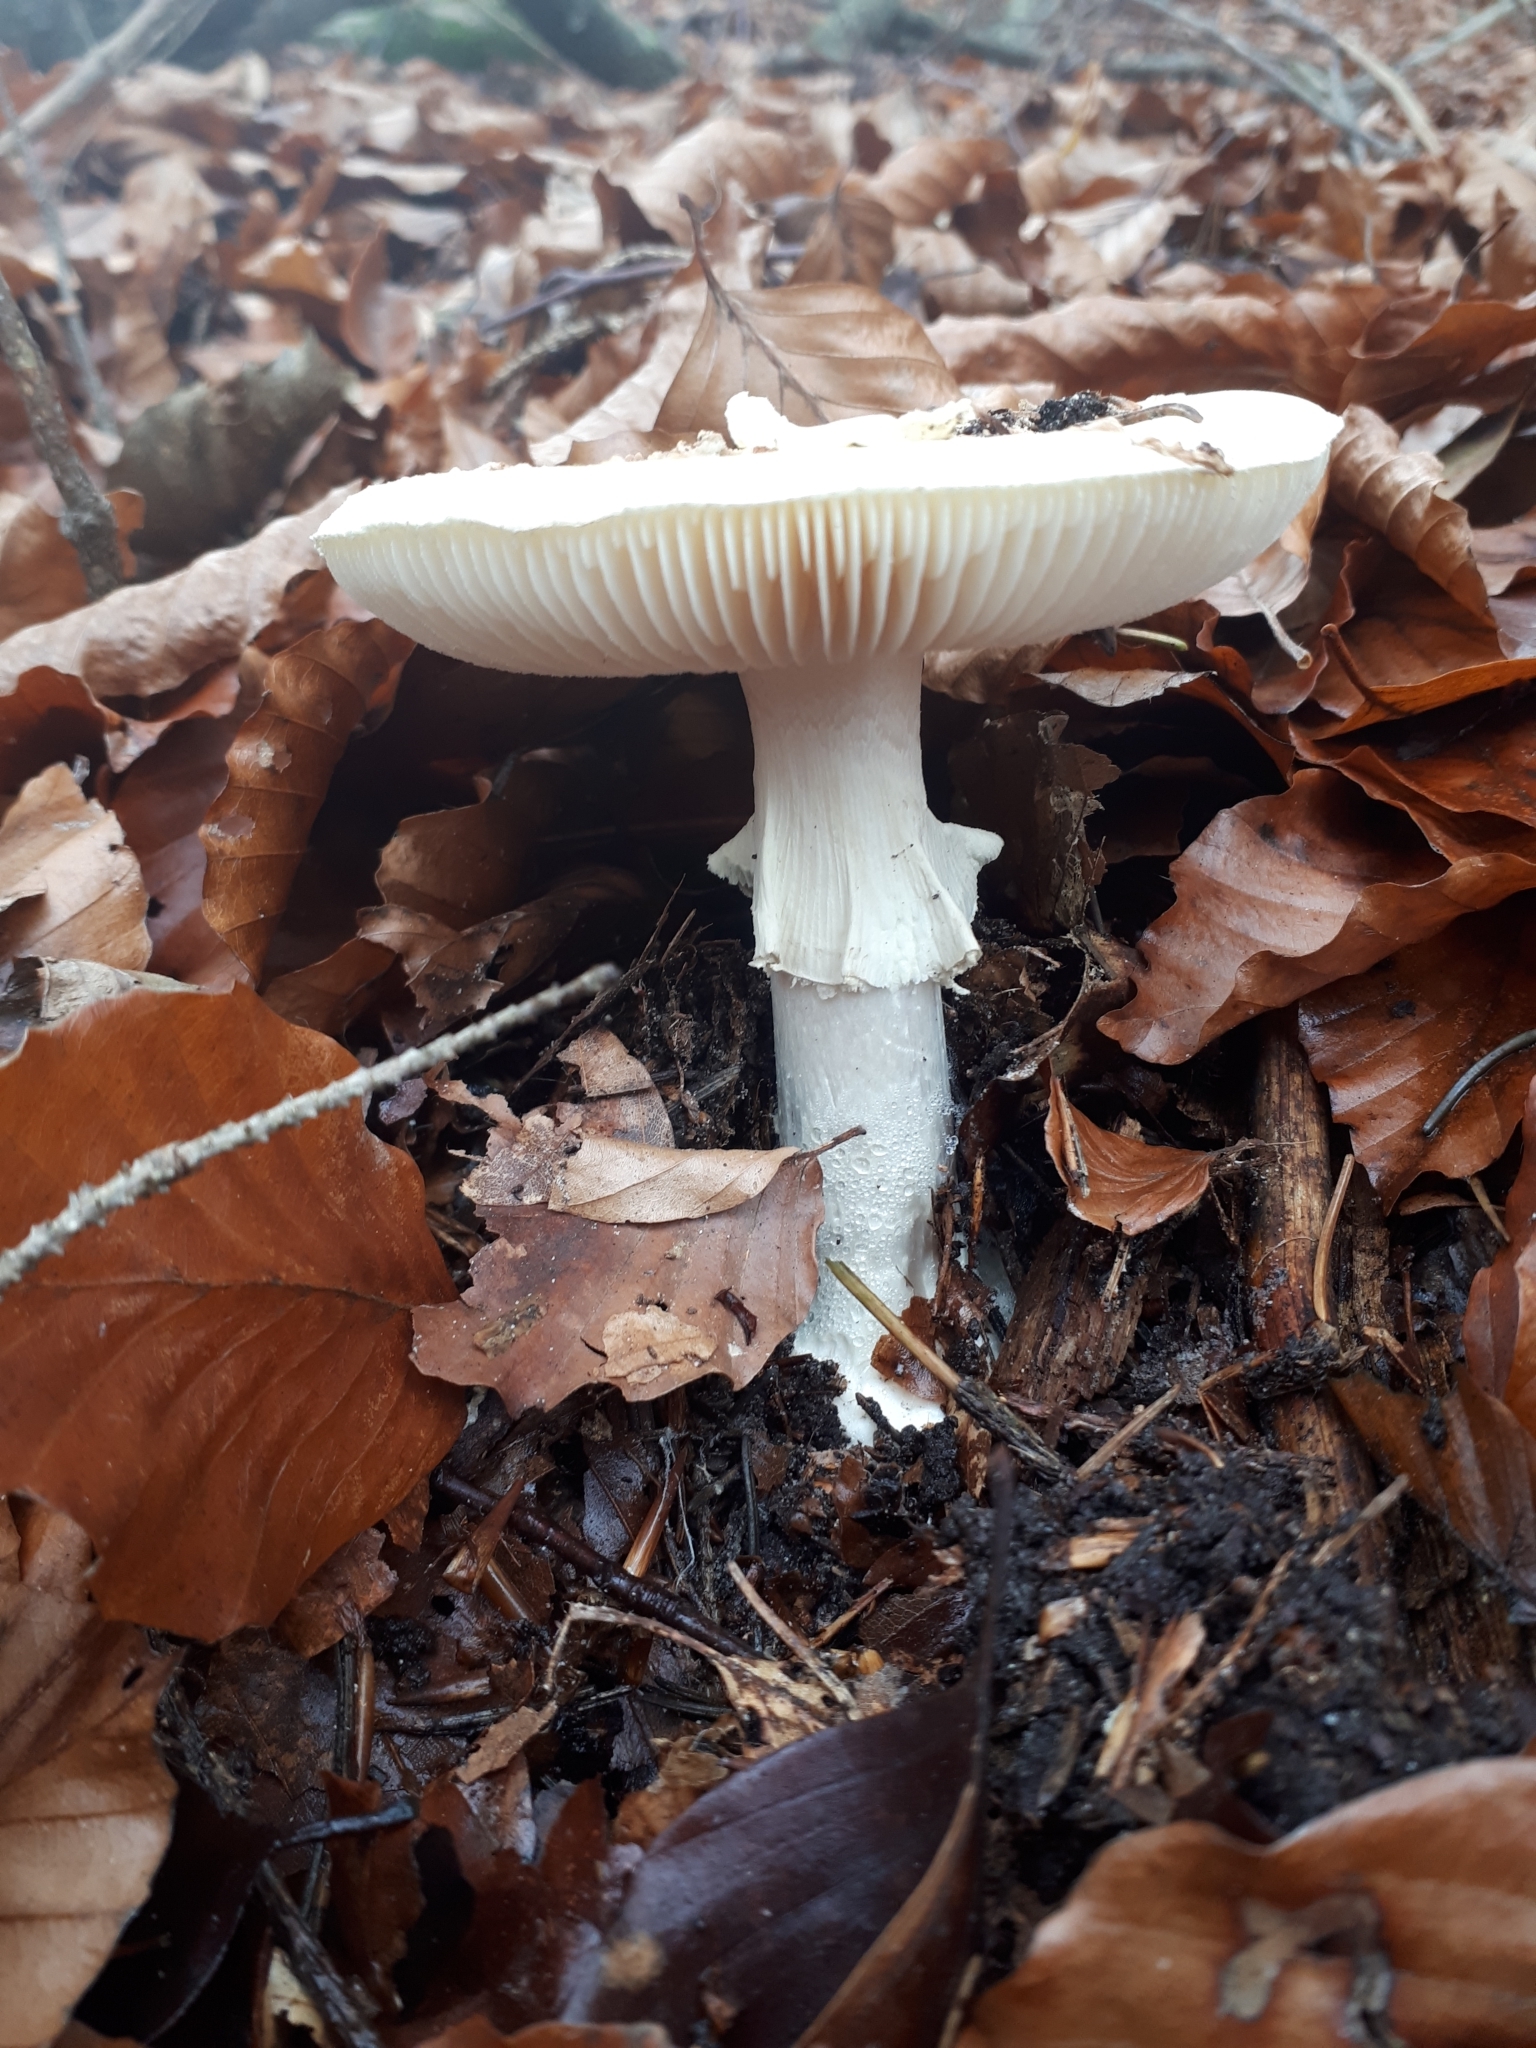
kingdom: Fungi
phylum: Basidiomycota
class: Agaricomycetes
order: Agaricales
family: Amanitaceae
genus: Amanita
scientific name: Amanita citrina
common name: False death-cap
